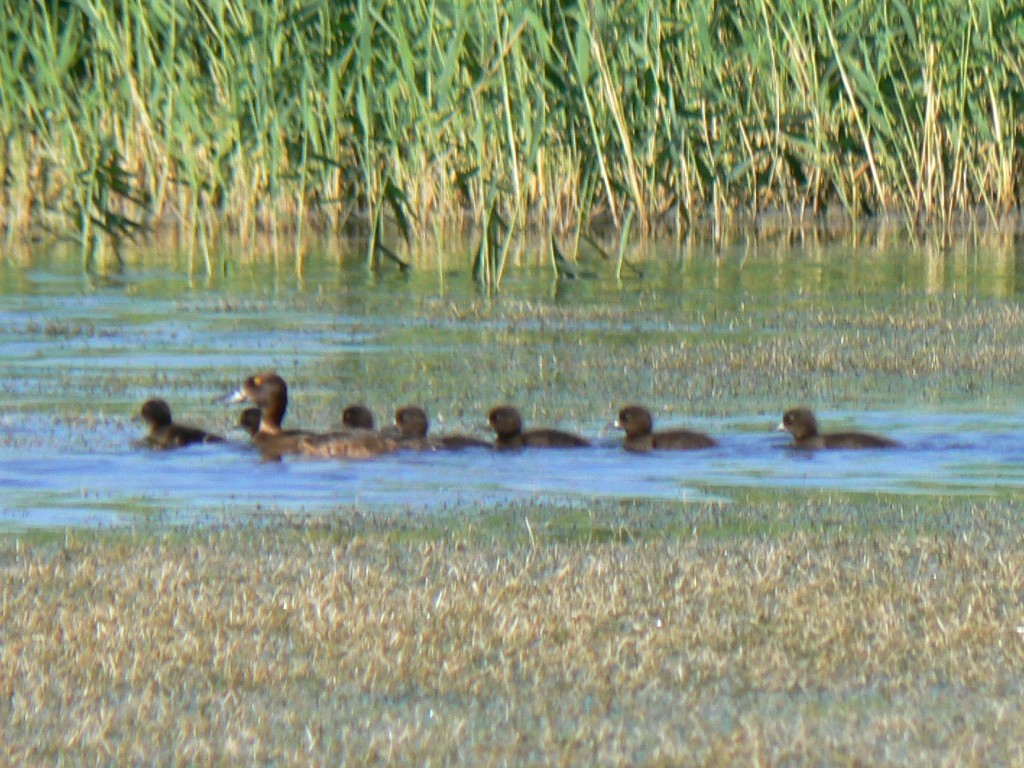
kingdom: Animalia
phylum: Chordata
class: Aves
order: Anseriformes
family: Anatidae
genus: Aythya
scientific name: Aythya fuligula
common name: Tufted duck
